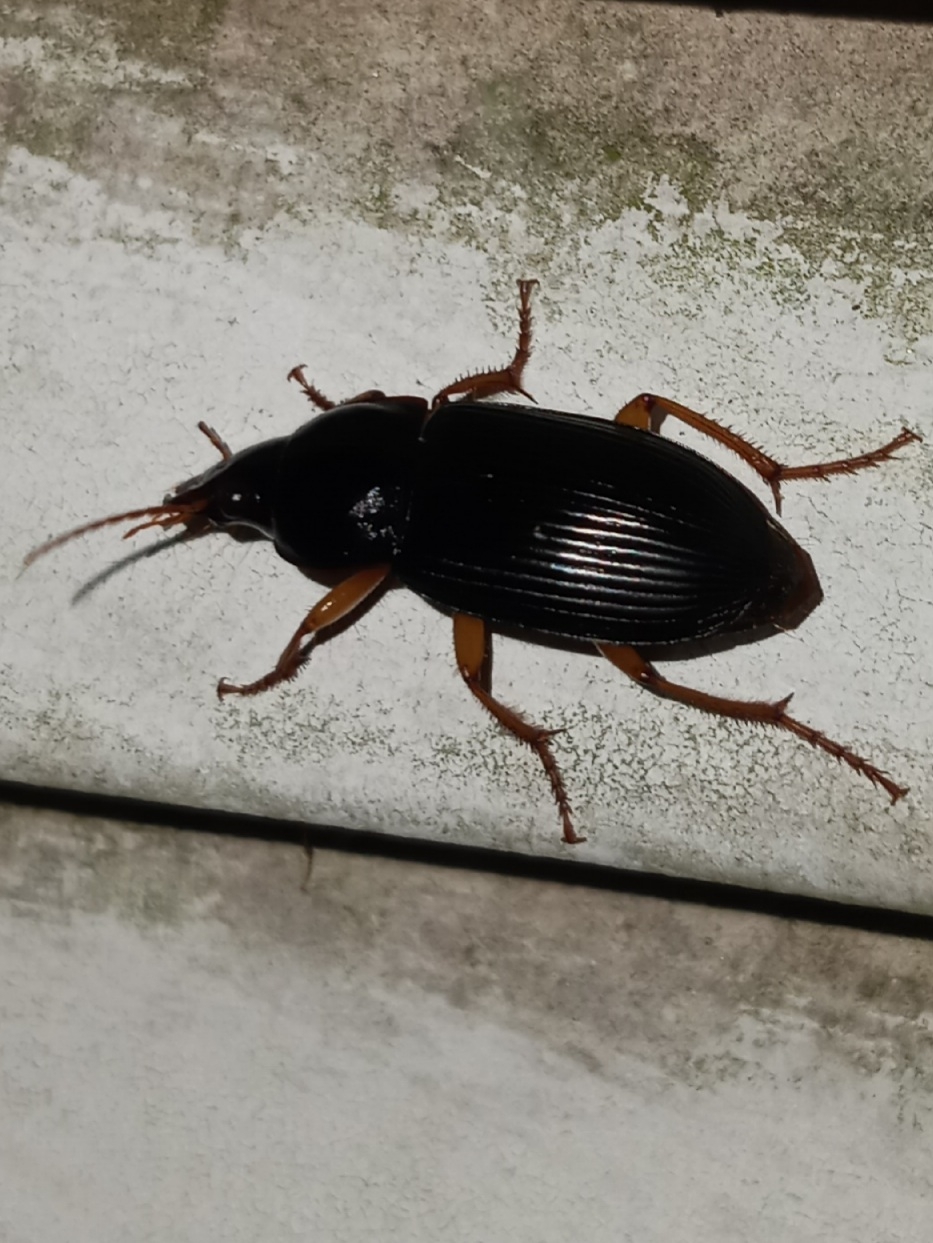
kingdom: Animalia
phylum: Arthropoda
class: Insecta
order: Coleoptera
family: Carabidae
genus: Harpalus
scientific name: Harpalus pensylvanicus
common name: Pennsylvania dingy ground beetle
